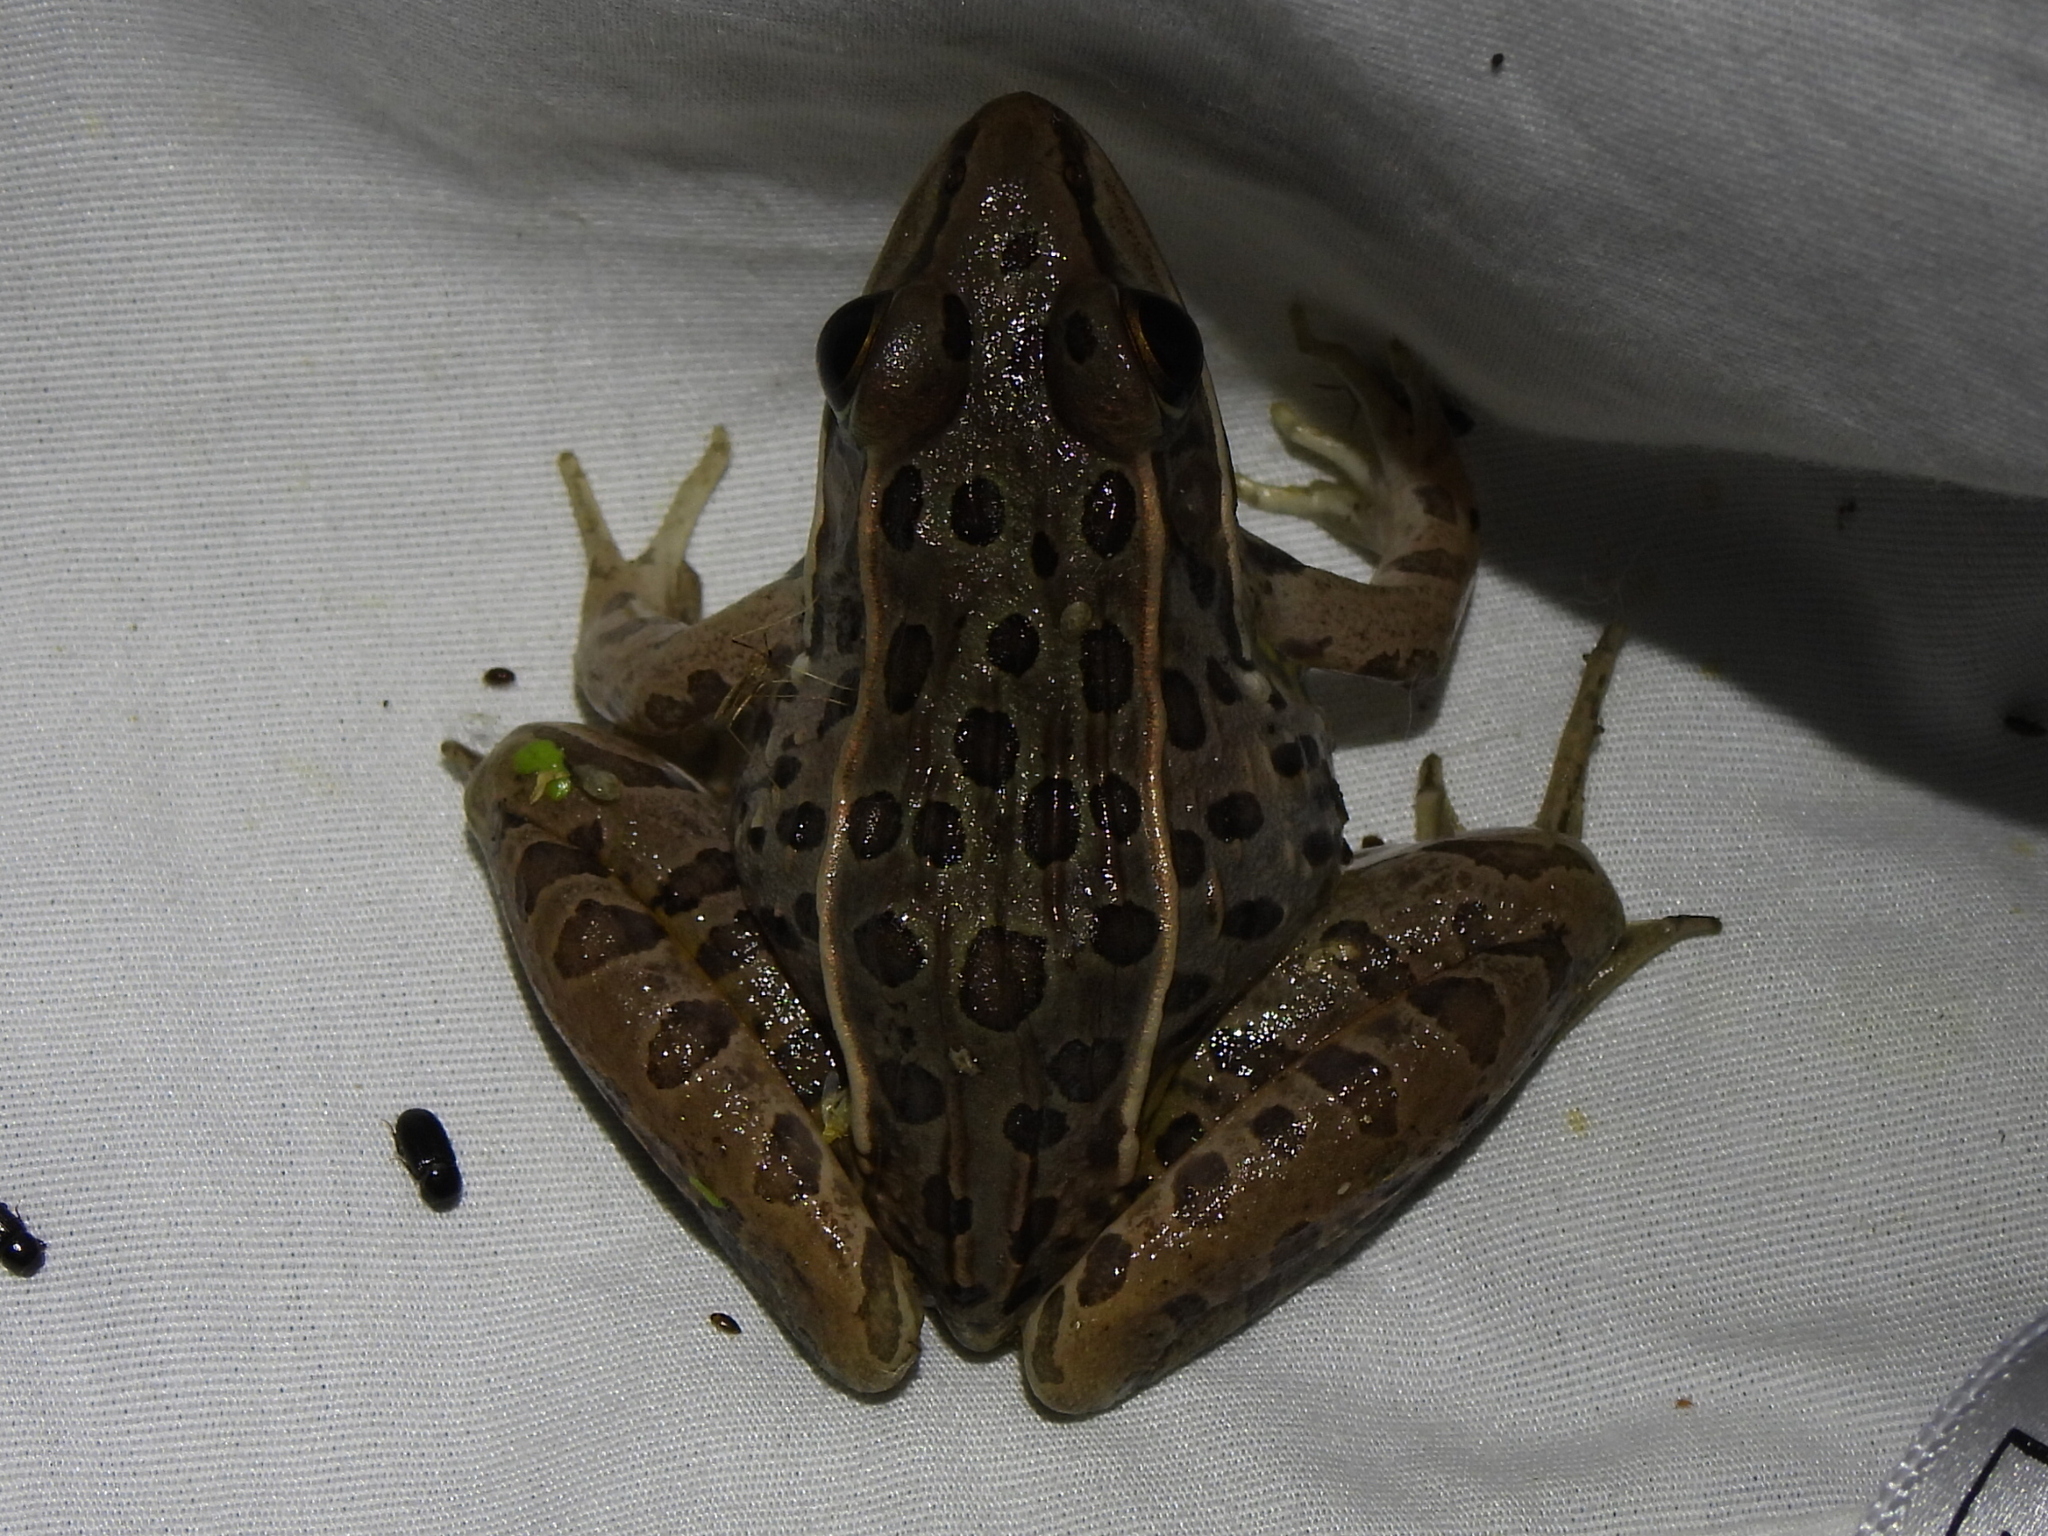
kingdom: Animalia
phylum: Chordata
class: Amphibia
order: Anura
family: Ranidae
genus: Lithobates
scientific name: Lithobates sphenocephalus
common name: Southern leopard frog
